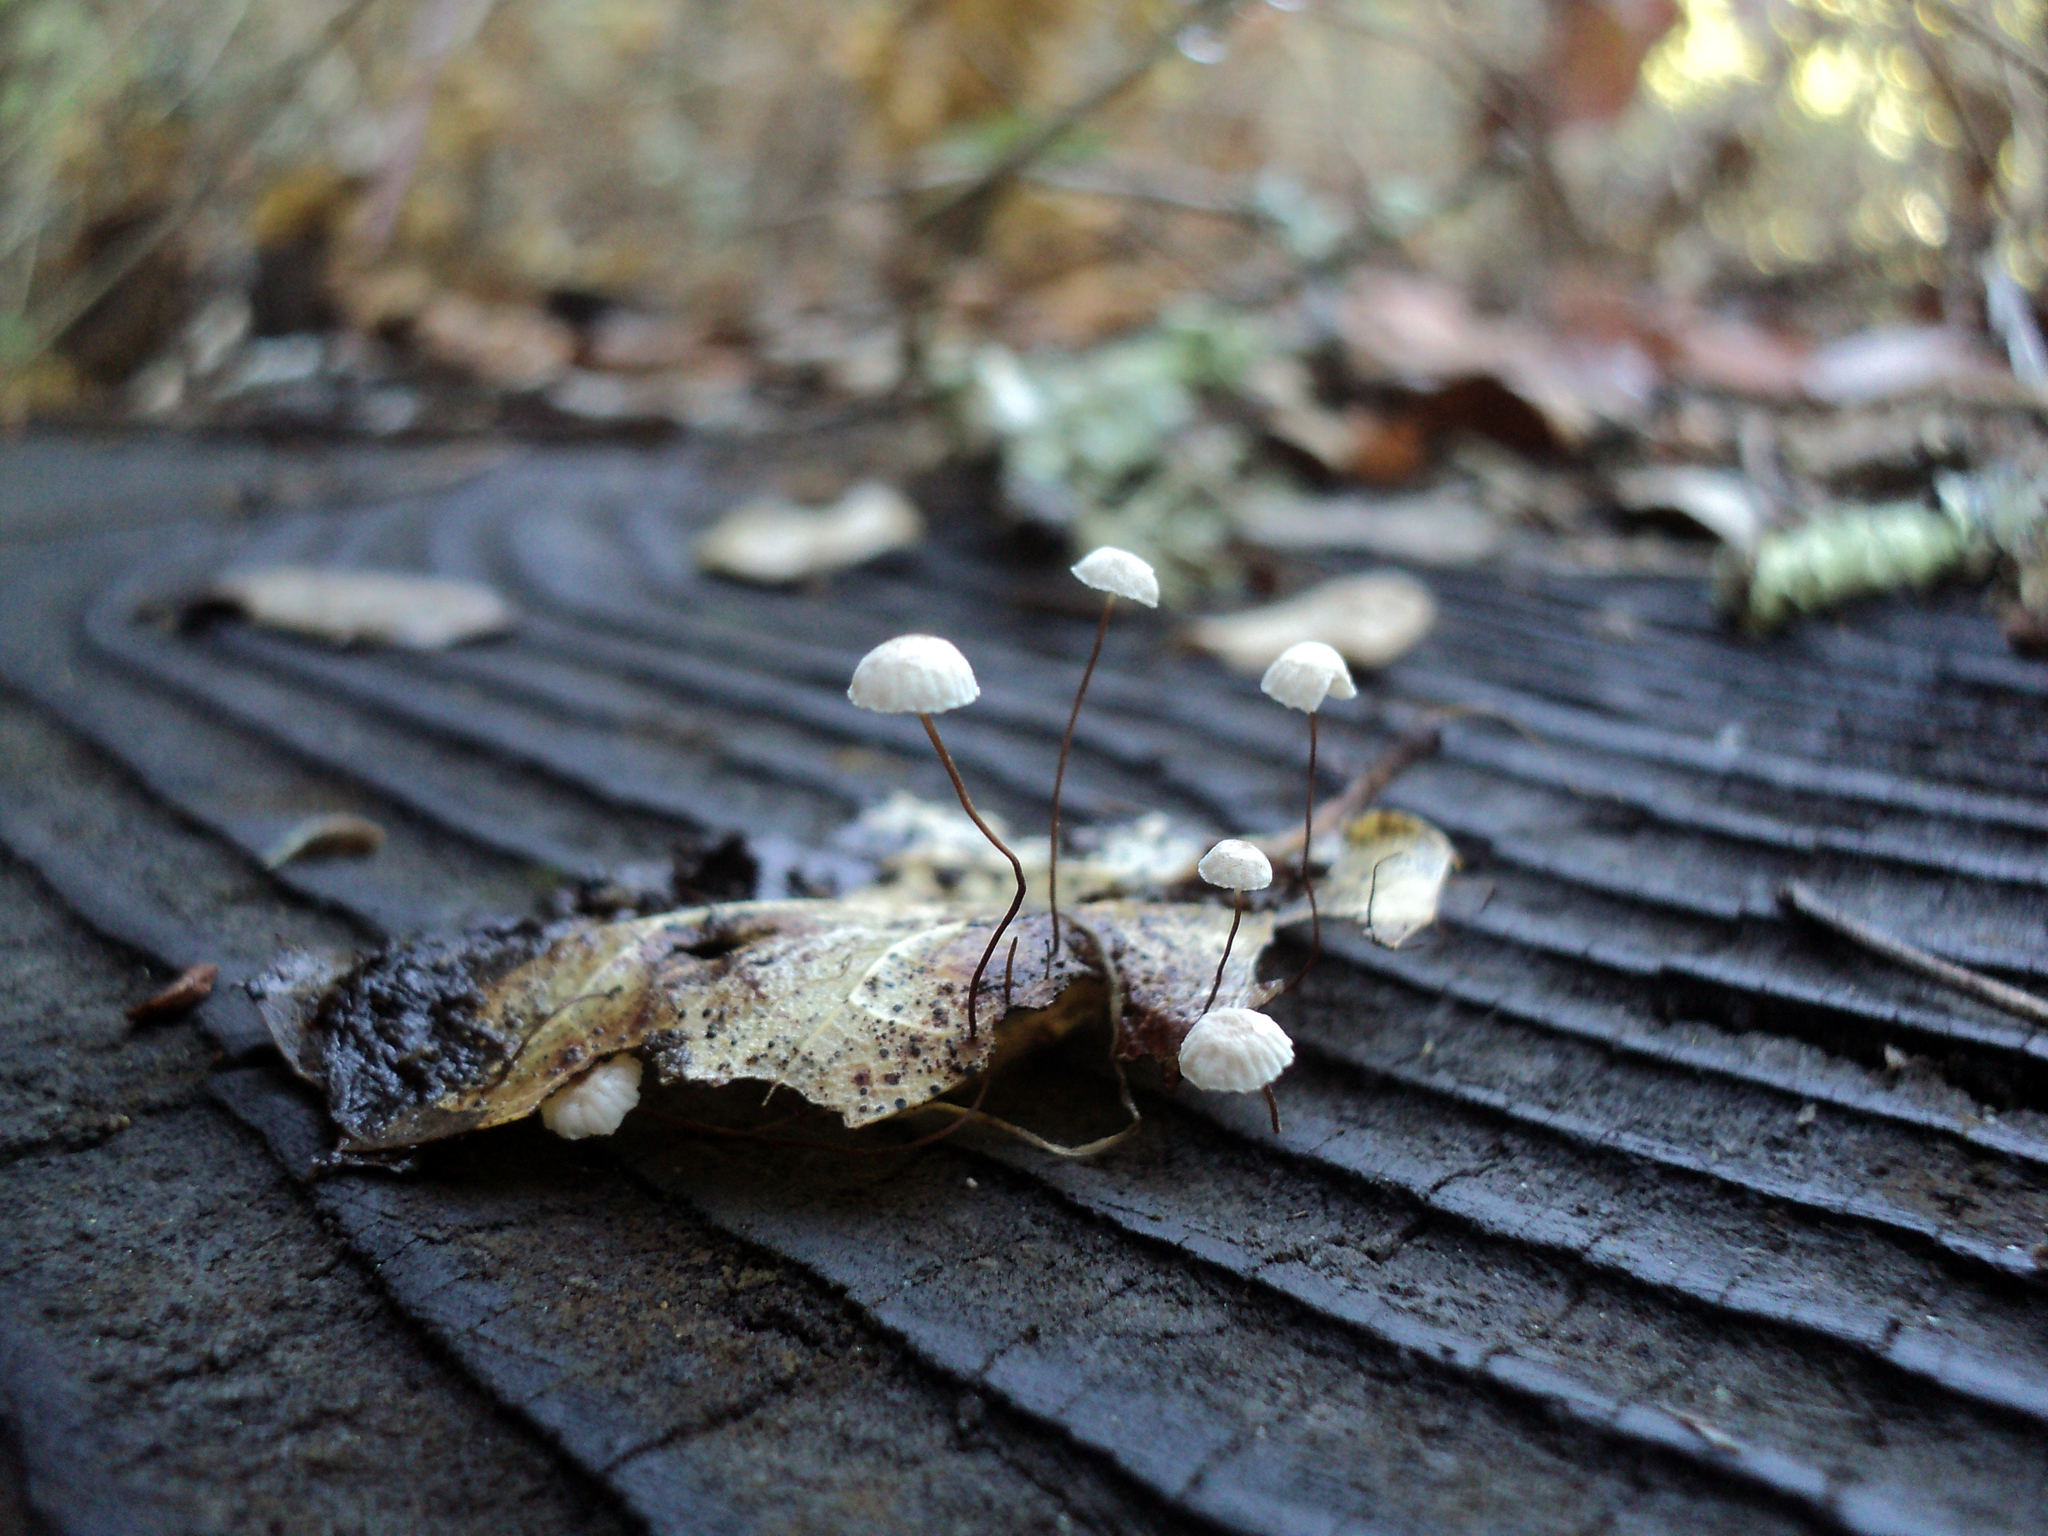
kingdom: Fungi
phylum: Basidiomycota
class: Agaricomycetes
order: Agaricales
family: Omphalotaceae
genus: Collybiopsis
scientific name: Collybiopsis quercophila
